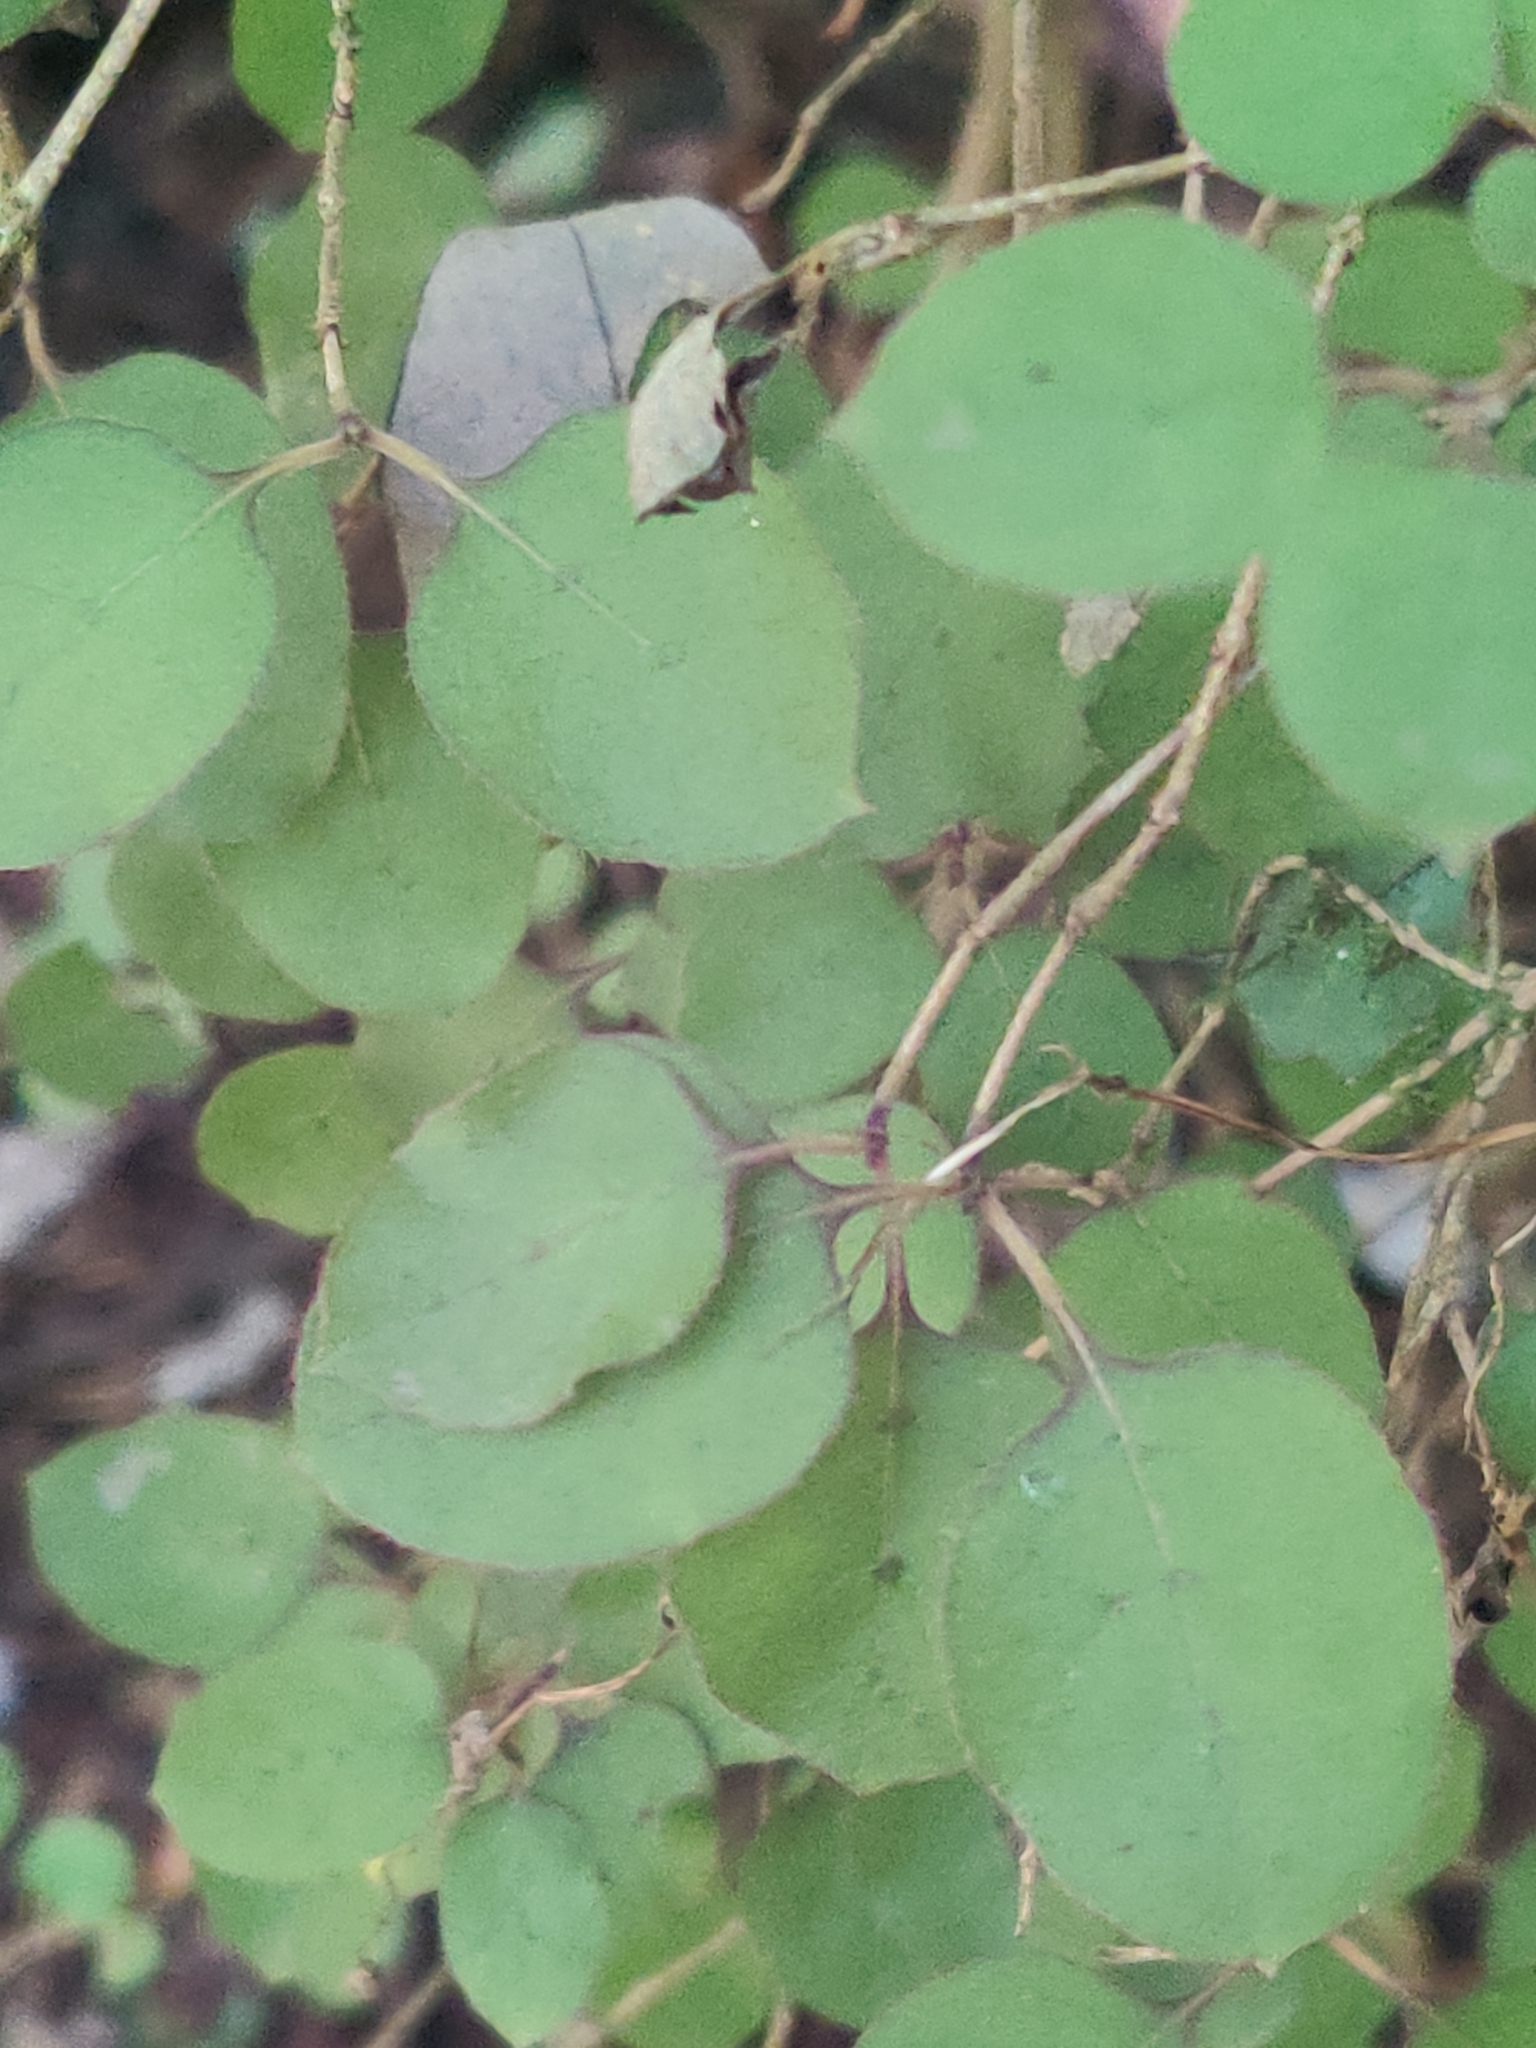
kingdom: Plantae
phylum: Tracheophyta
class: Magnoliopsida
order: Gentianales
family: Rubiaceae
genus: Coprosma
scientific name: Coprosma rotundifolia
